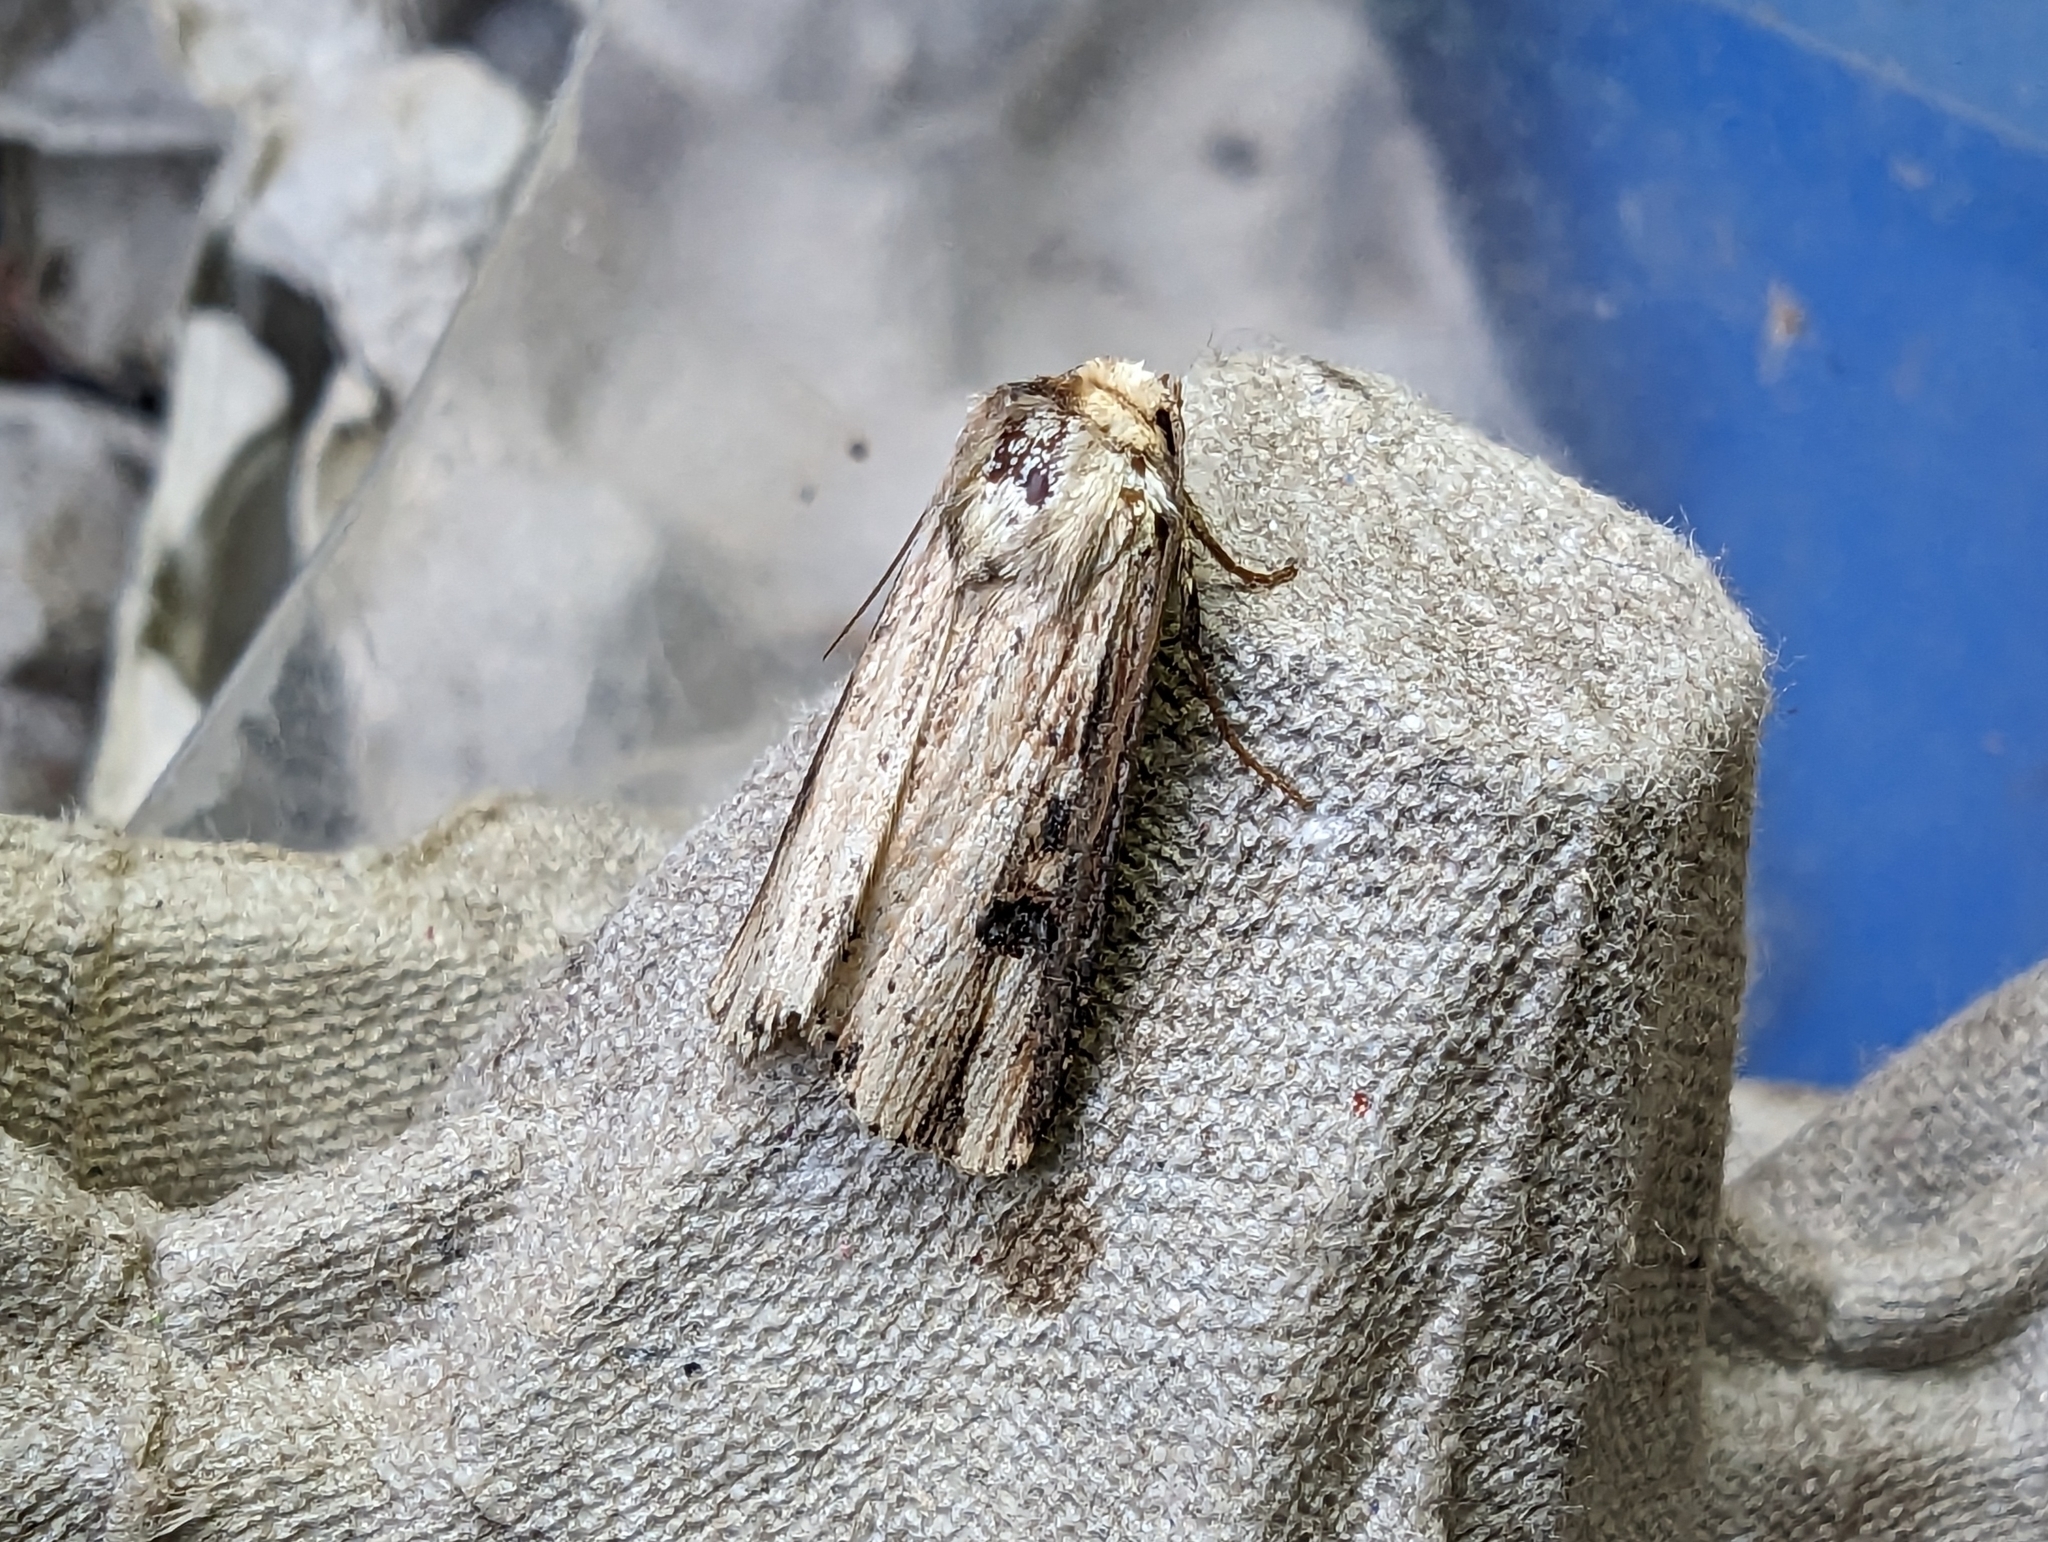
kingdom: Animalia
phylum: Arthropoda
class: Insecta
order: Lepidoptera
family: Noctuidae
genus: Axylia
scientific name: Axylia putris
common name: Flame
